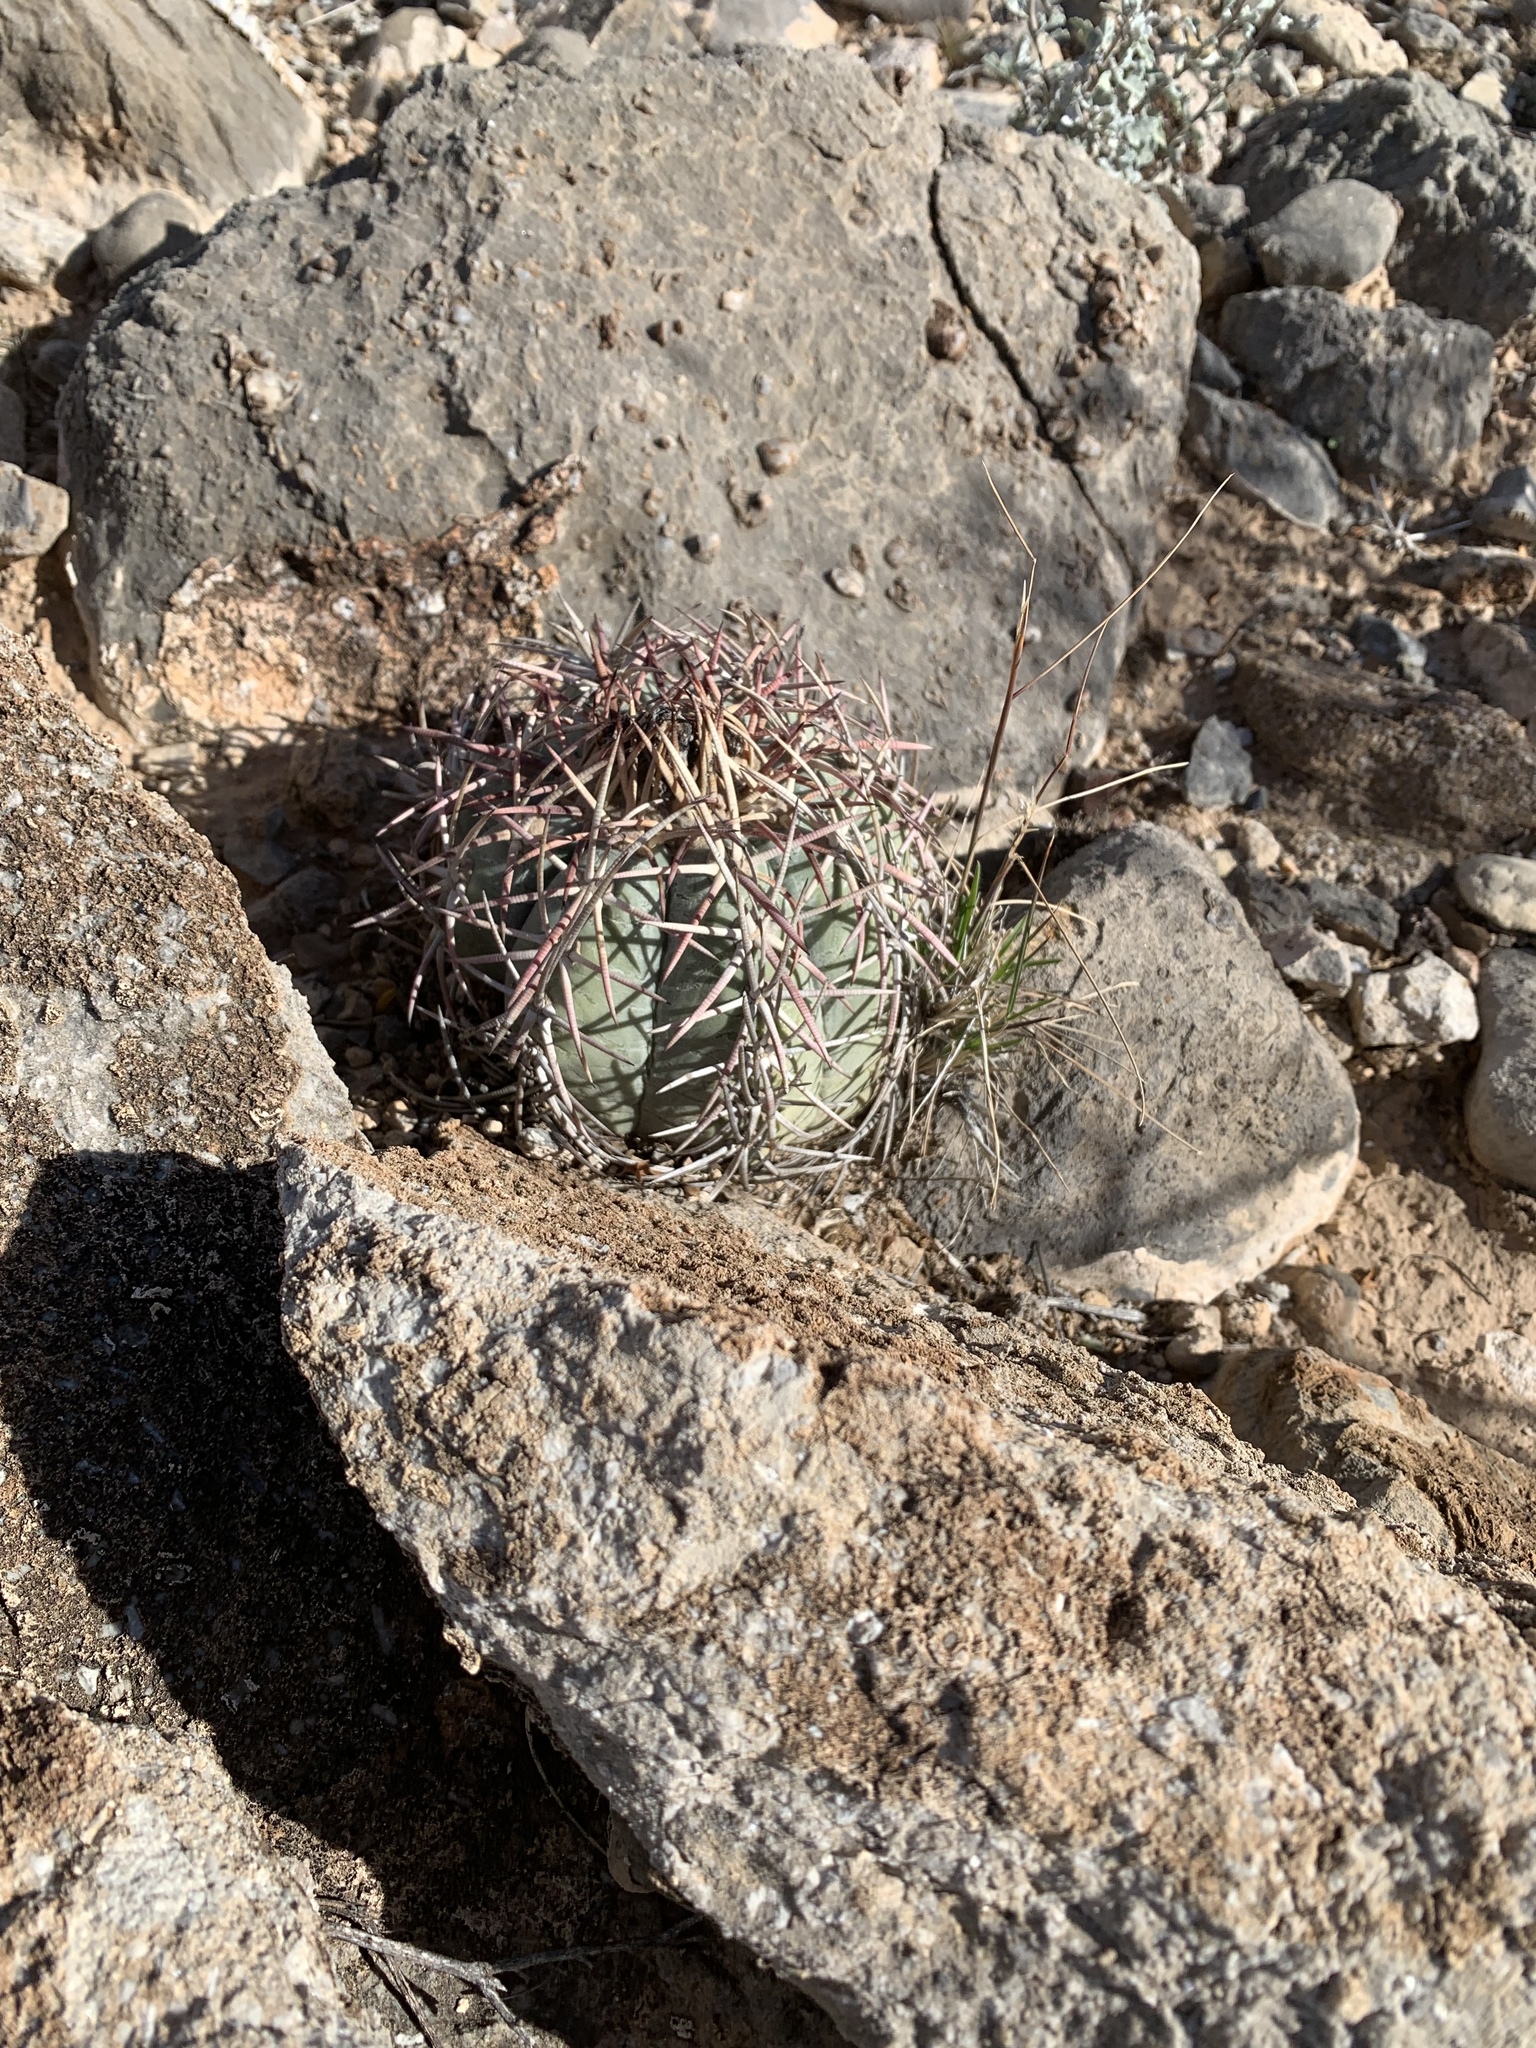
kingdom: Plantae
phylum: Tracheophyta
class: Magnoliopsida
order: Caryophyllales
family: Cactaceae
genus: Echinocactus
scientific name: Echinocactus horizonthalonius
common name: Devilshead
